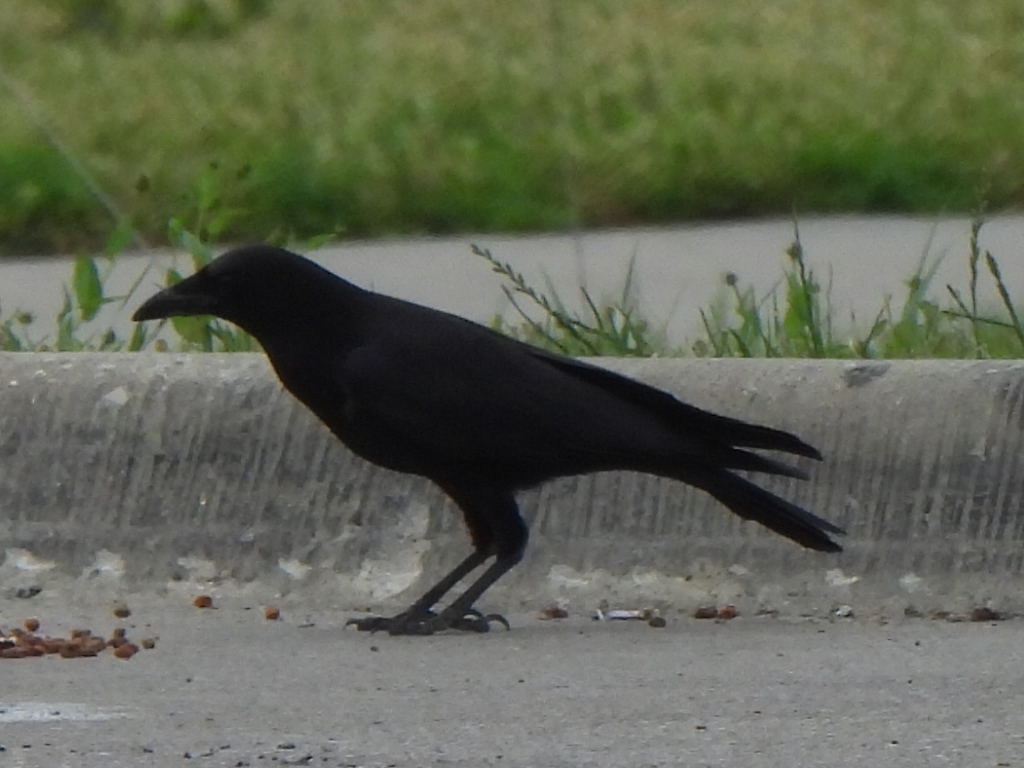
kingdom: Animalia
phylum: Chordata
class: Aves
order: Passeriformes
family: Corvidae
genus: Corvus
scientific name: Corvus brachyrhynchos
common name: American crow
